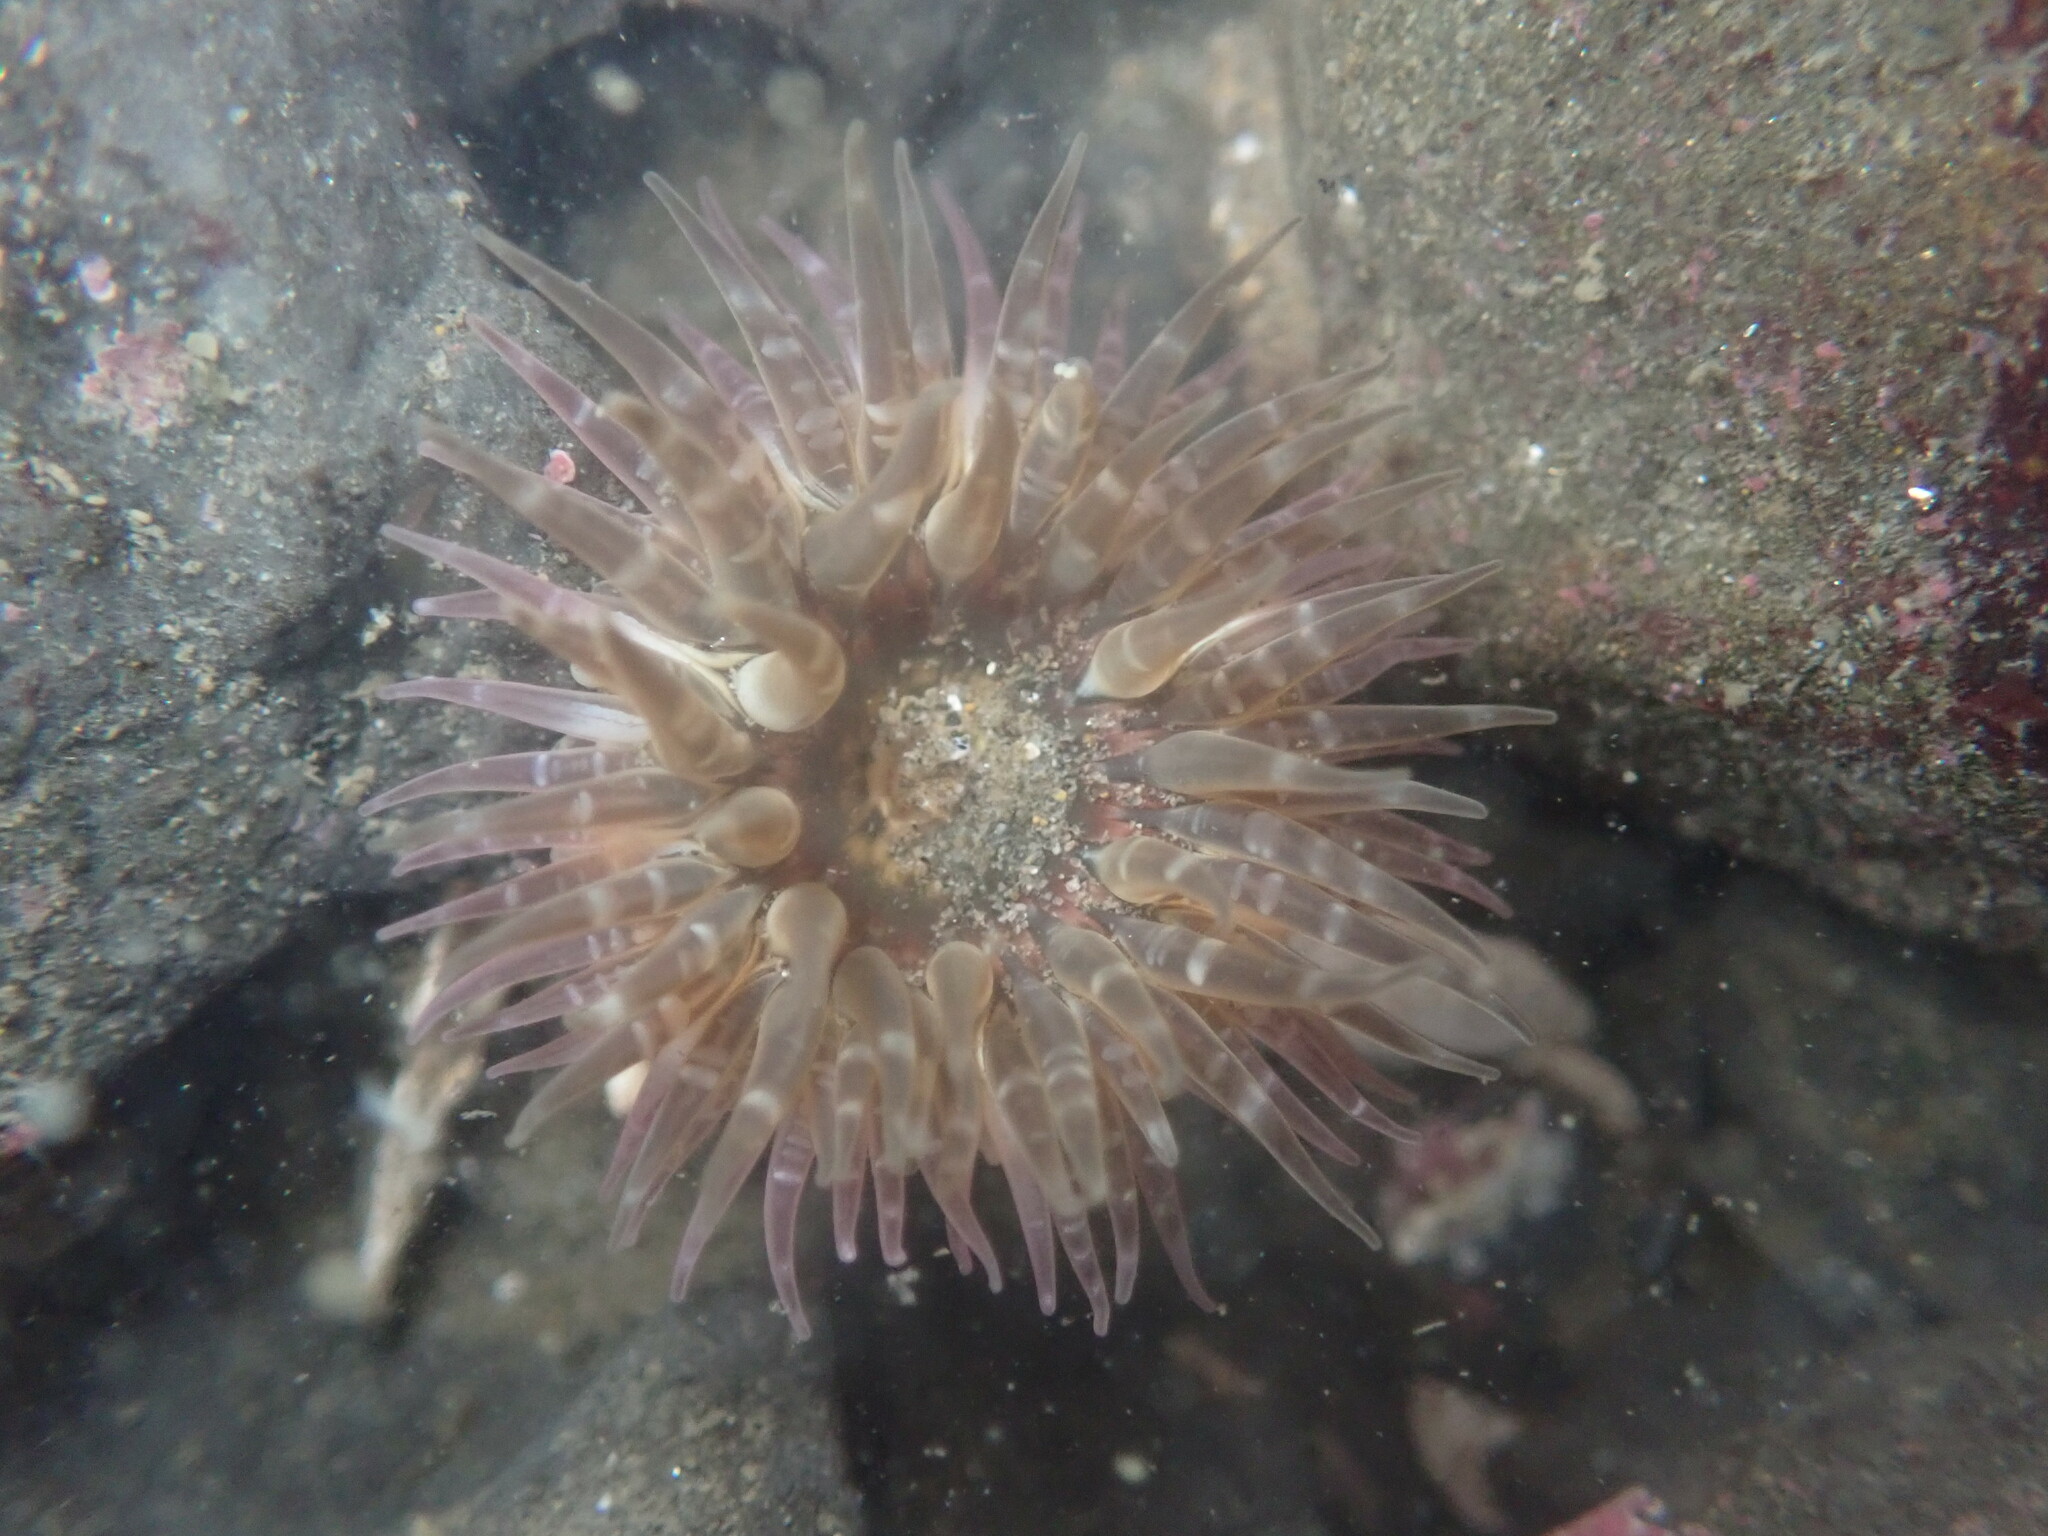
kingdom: Animalia
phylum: Cnidaria
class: Anthozoa
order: Actiniaria
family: Actiniidae
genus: Anthopleura
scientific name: Anthopleura artemisia
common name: Buried sea anemone
